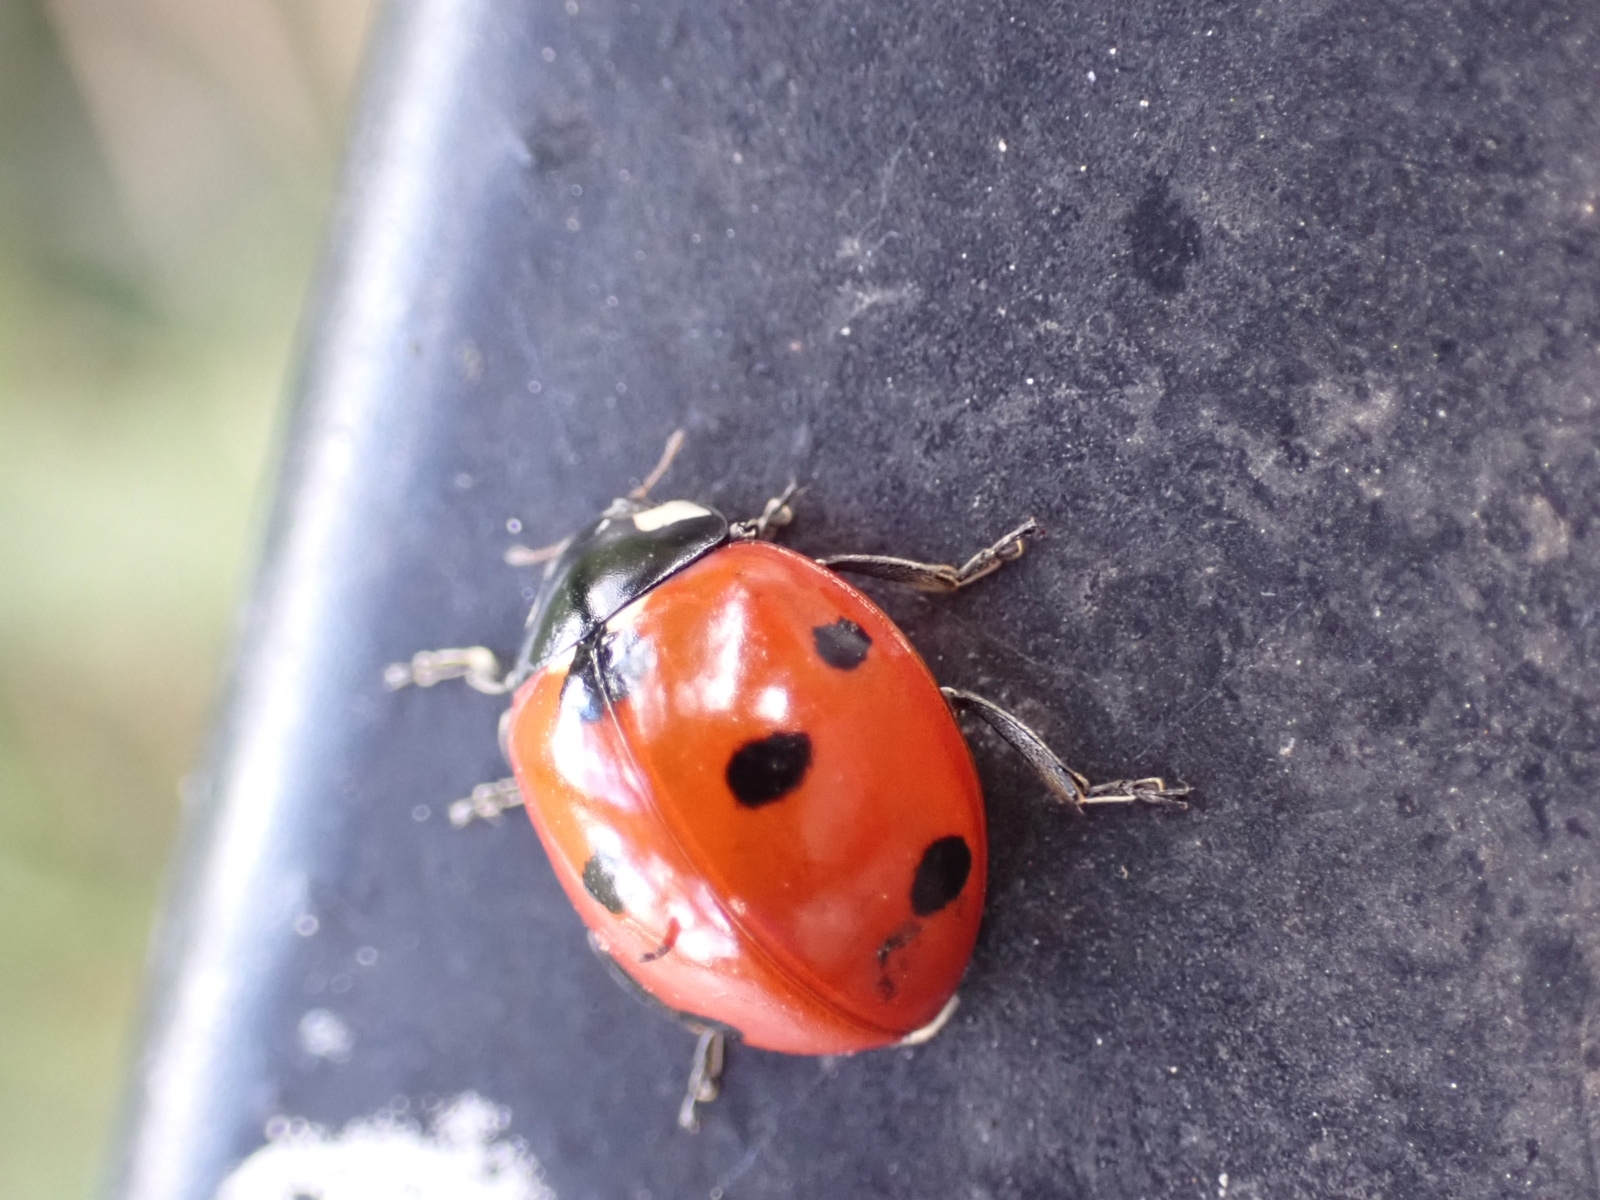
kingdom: Animalia
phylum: Arthropoda
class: Insecta
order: Coleoptera
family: Coccinellidae
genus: Coccinella
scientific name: Coccinella septempunctata
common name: Sevenspotted lady beetle
